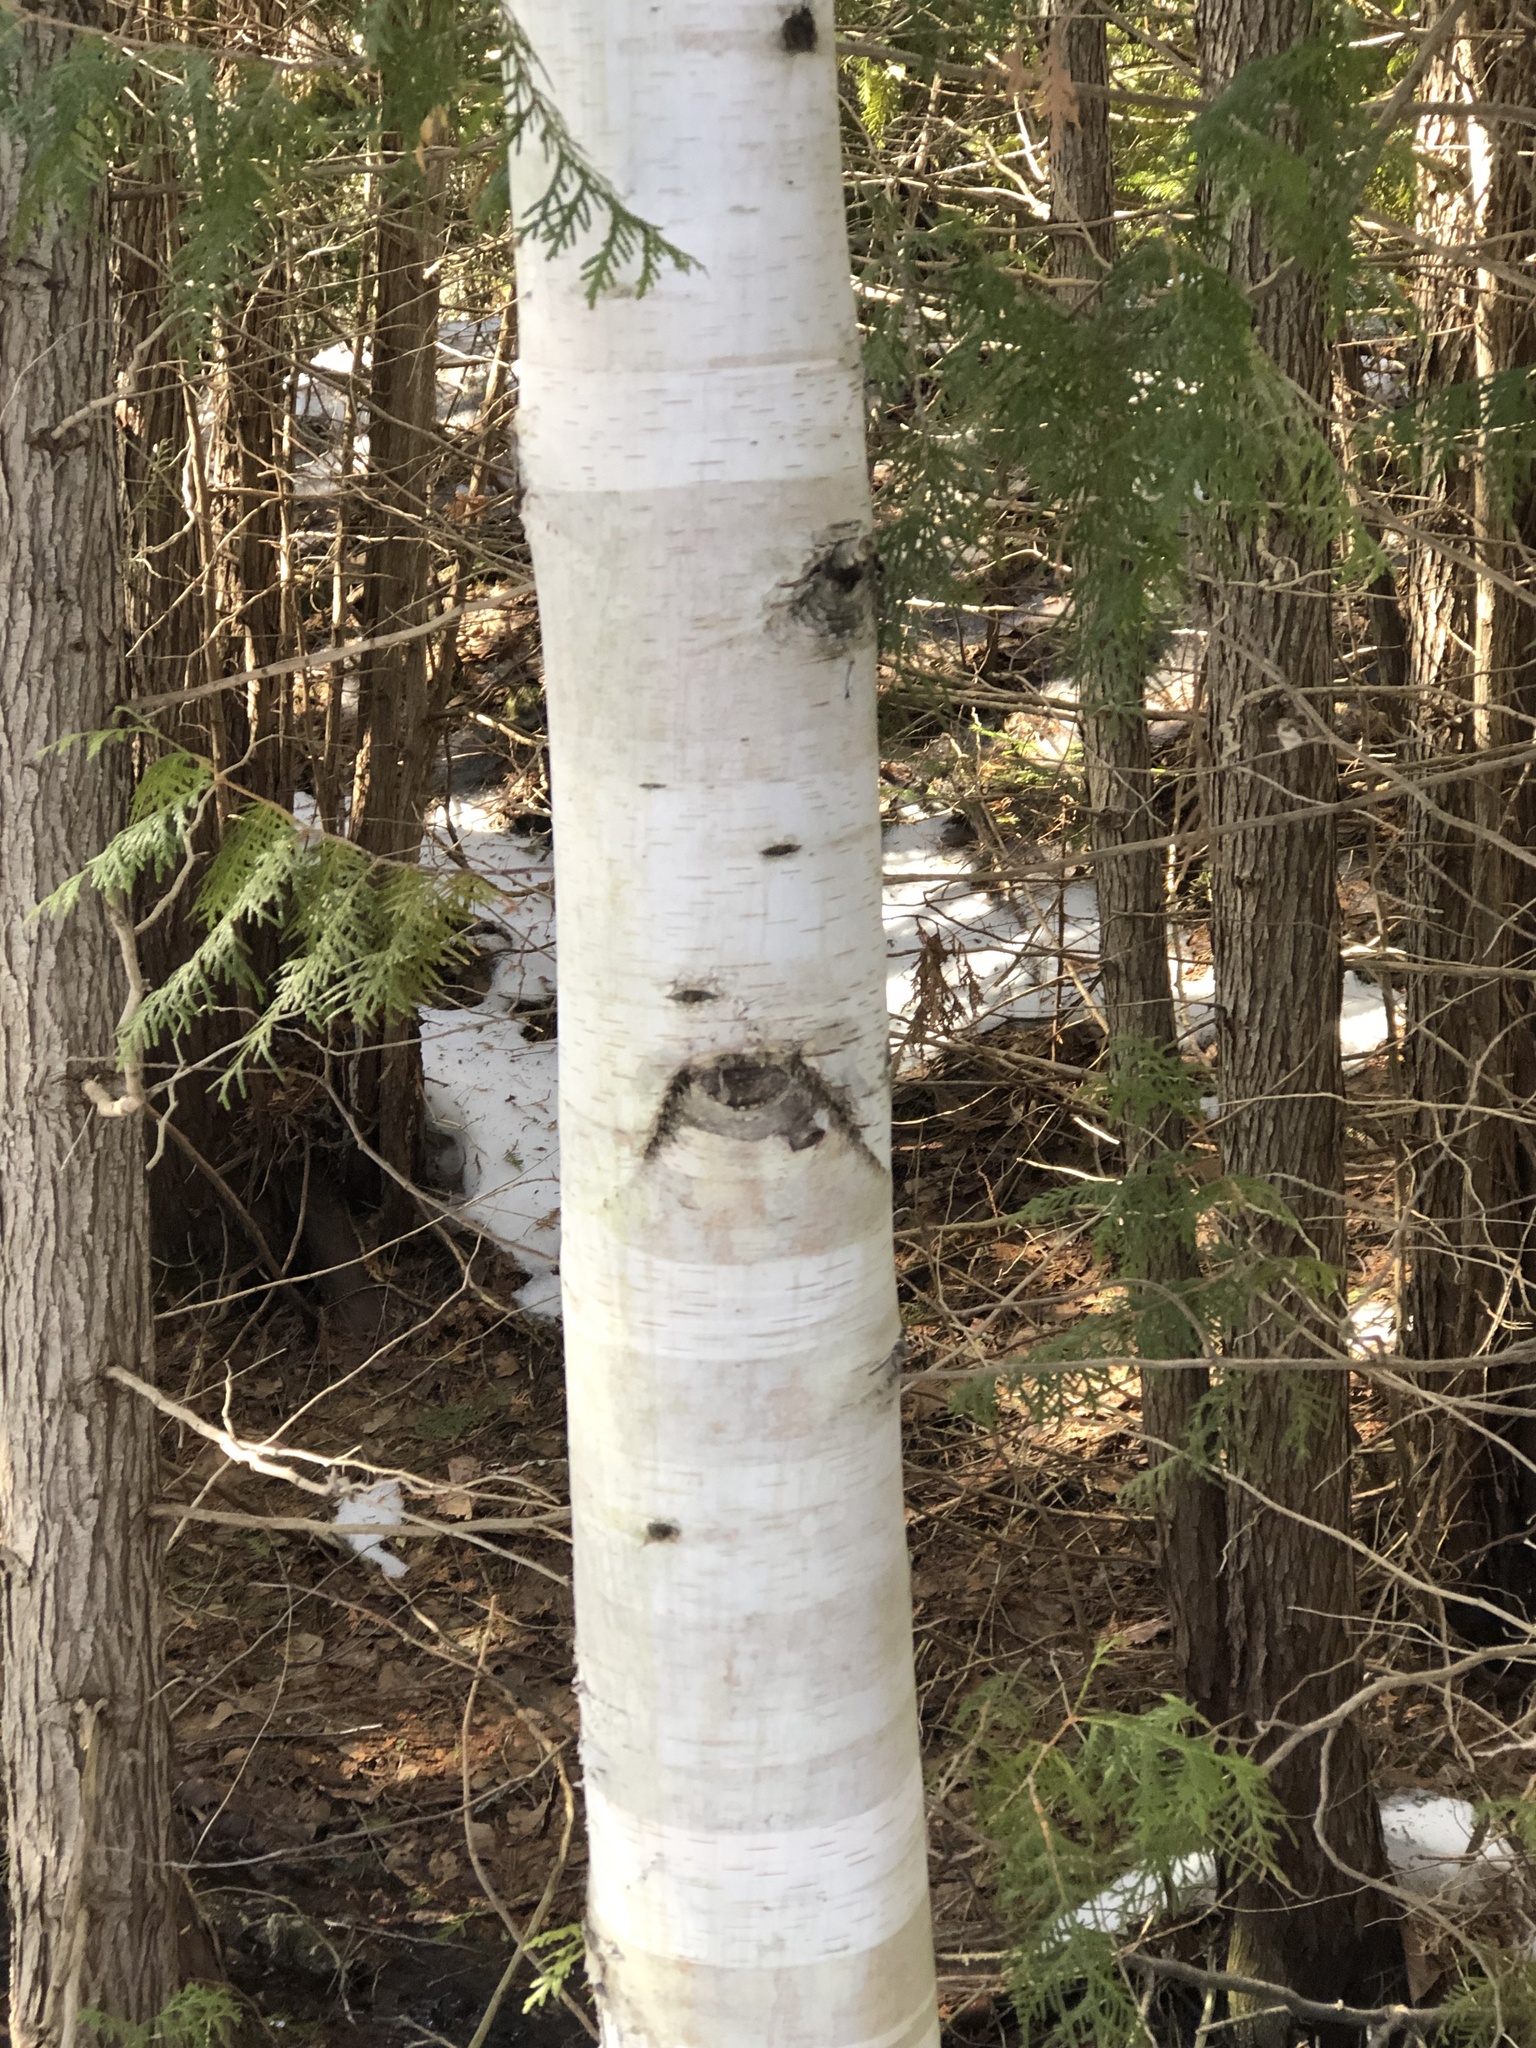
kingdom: Plantae
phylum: Tracheophyta
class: Magnoliopsida
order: Fagales
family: Betulaceae
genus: Betula
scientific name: Betula papyrifera
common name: Paper birch
